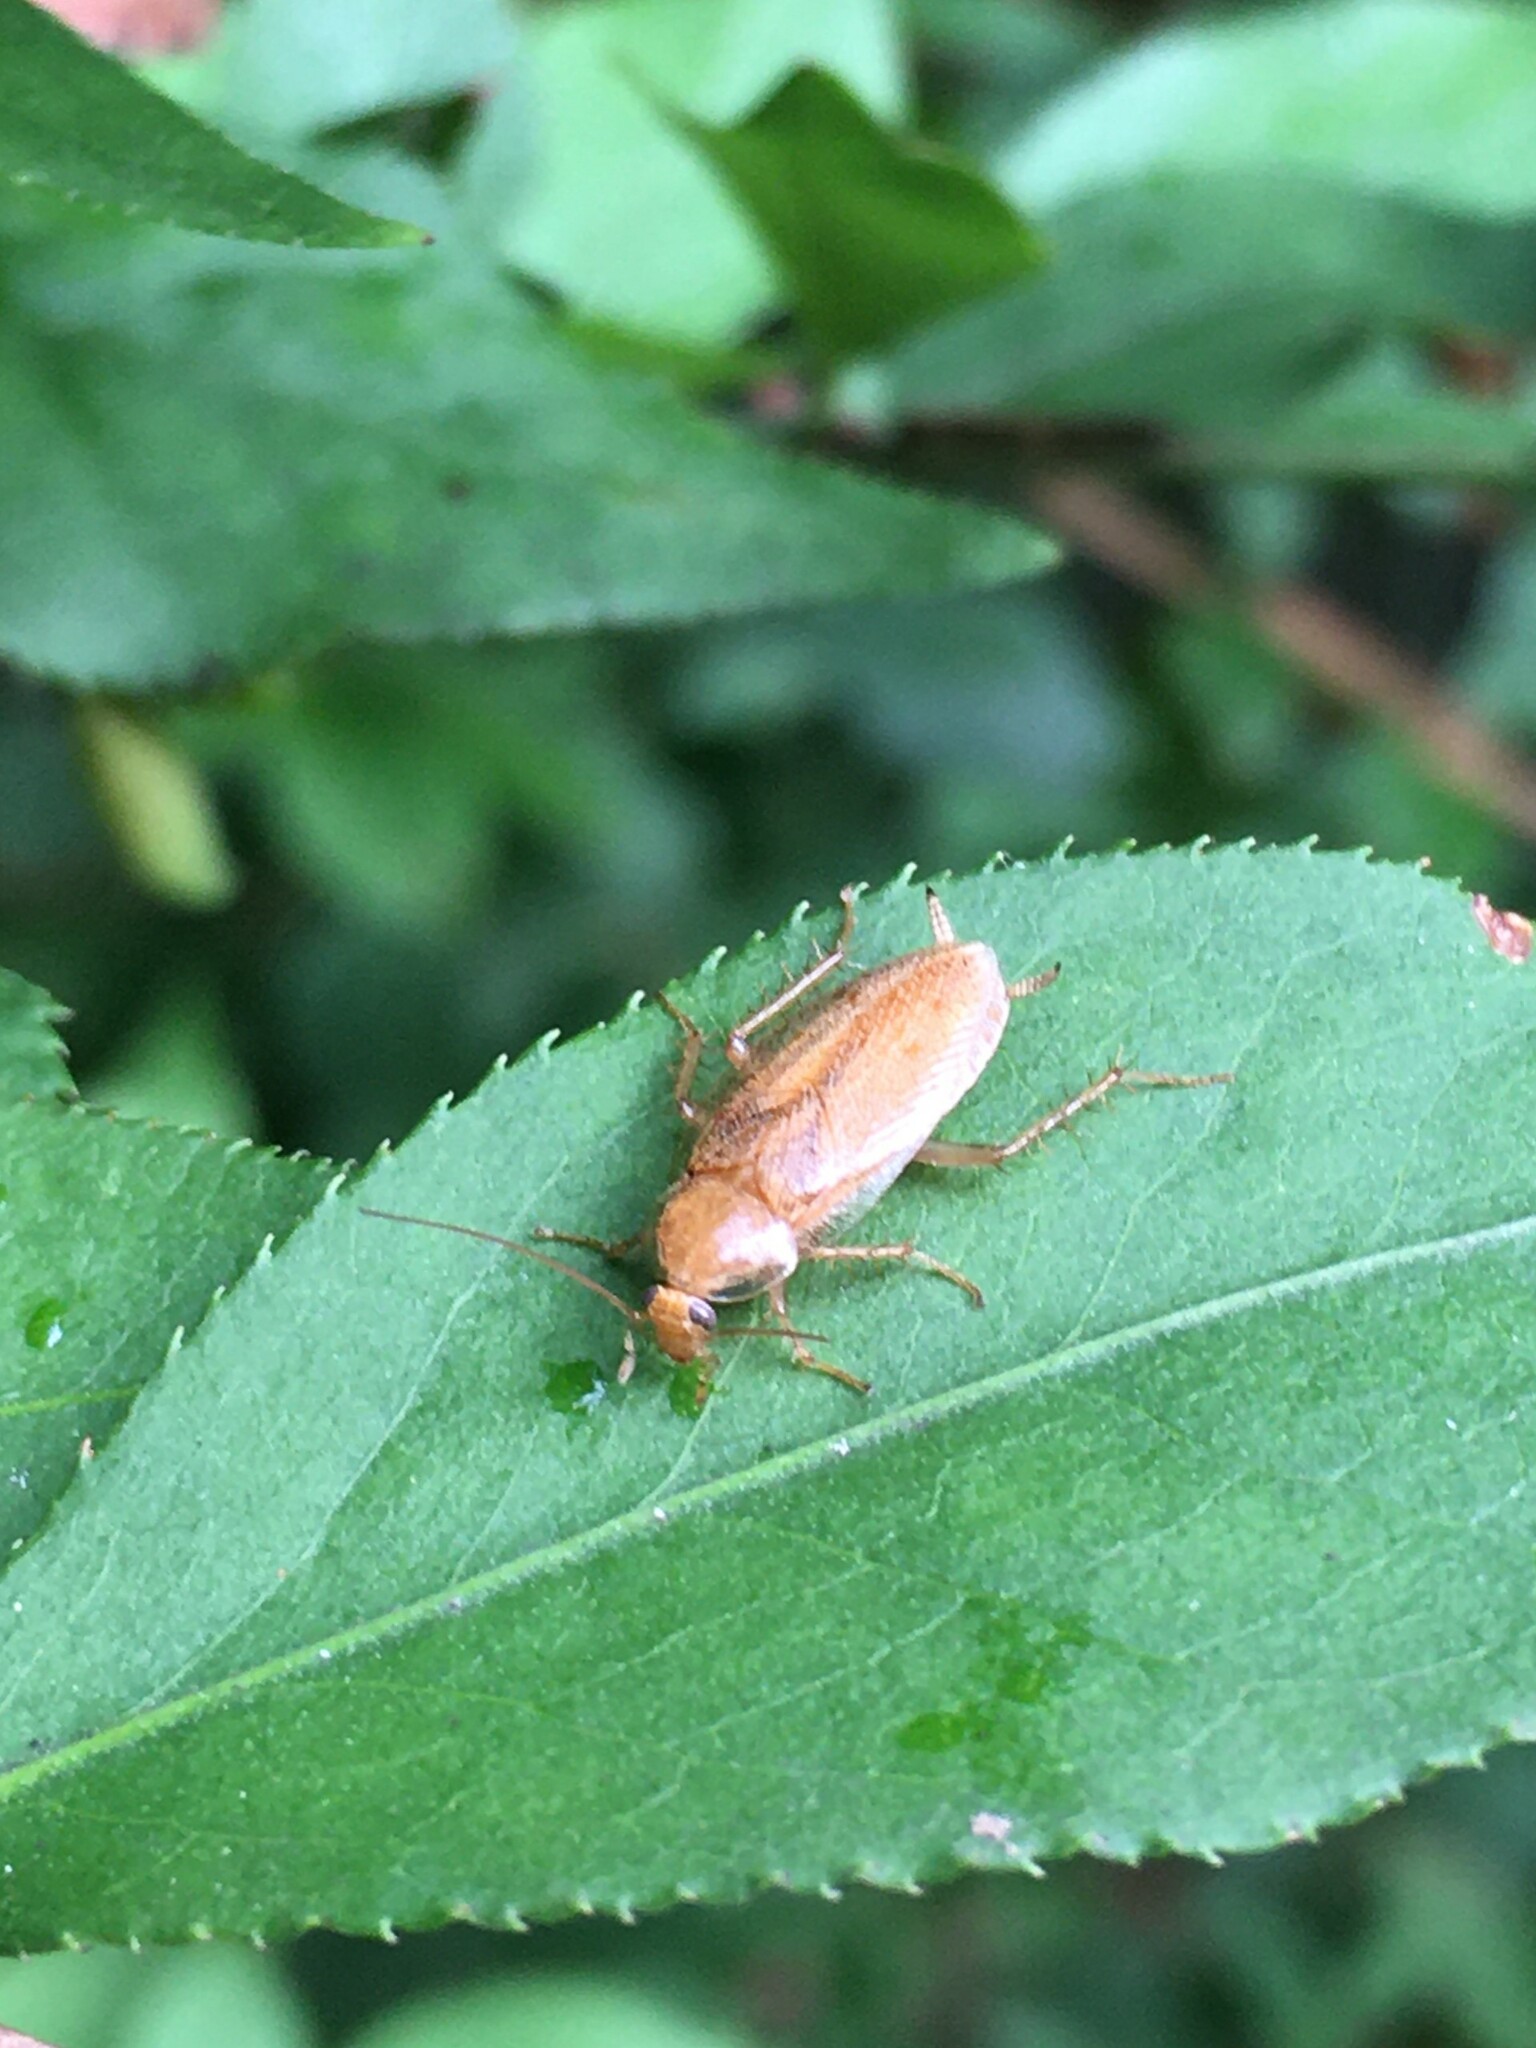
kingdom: Animalia
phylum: Arthropoda
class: Insecta
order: Blattodea
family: Ectobiidae
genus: Ectobius
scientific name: Ectobius pallidus
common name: Tawny cockroach
